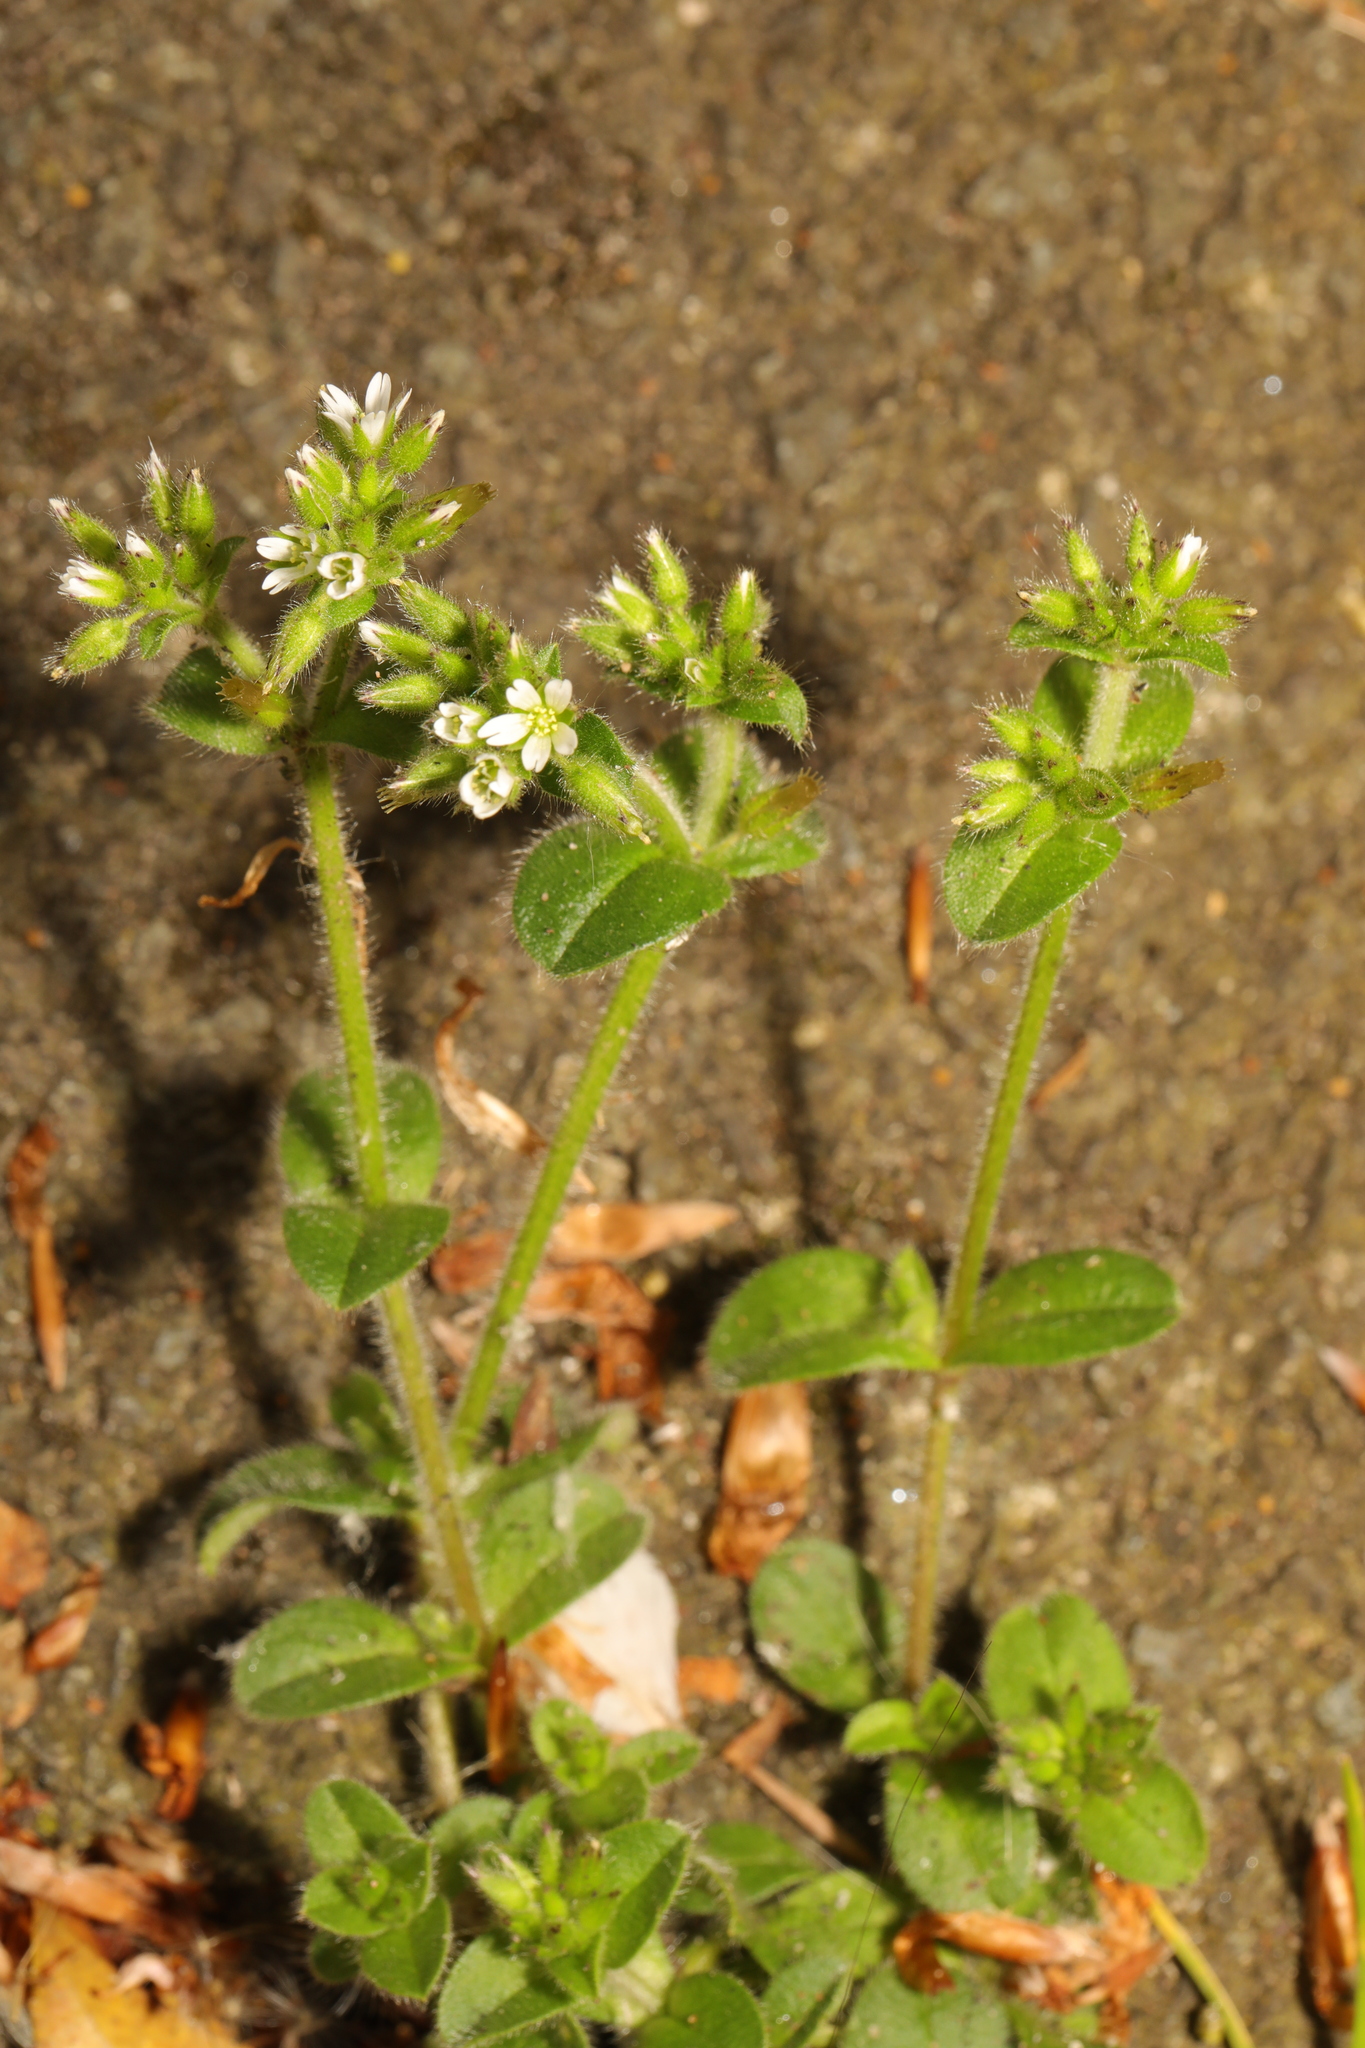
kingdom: Plantae
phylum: Tracheophyta
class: Magnoliopsida
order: Caryophyllales
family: Caryophyllaceae
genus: Cerastium
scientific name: Cerastium glomeratum
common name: Sticky chickweed
